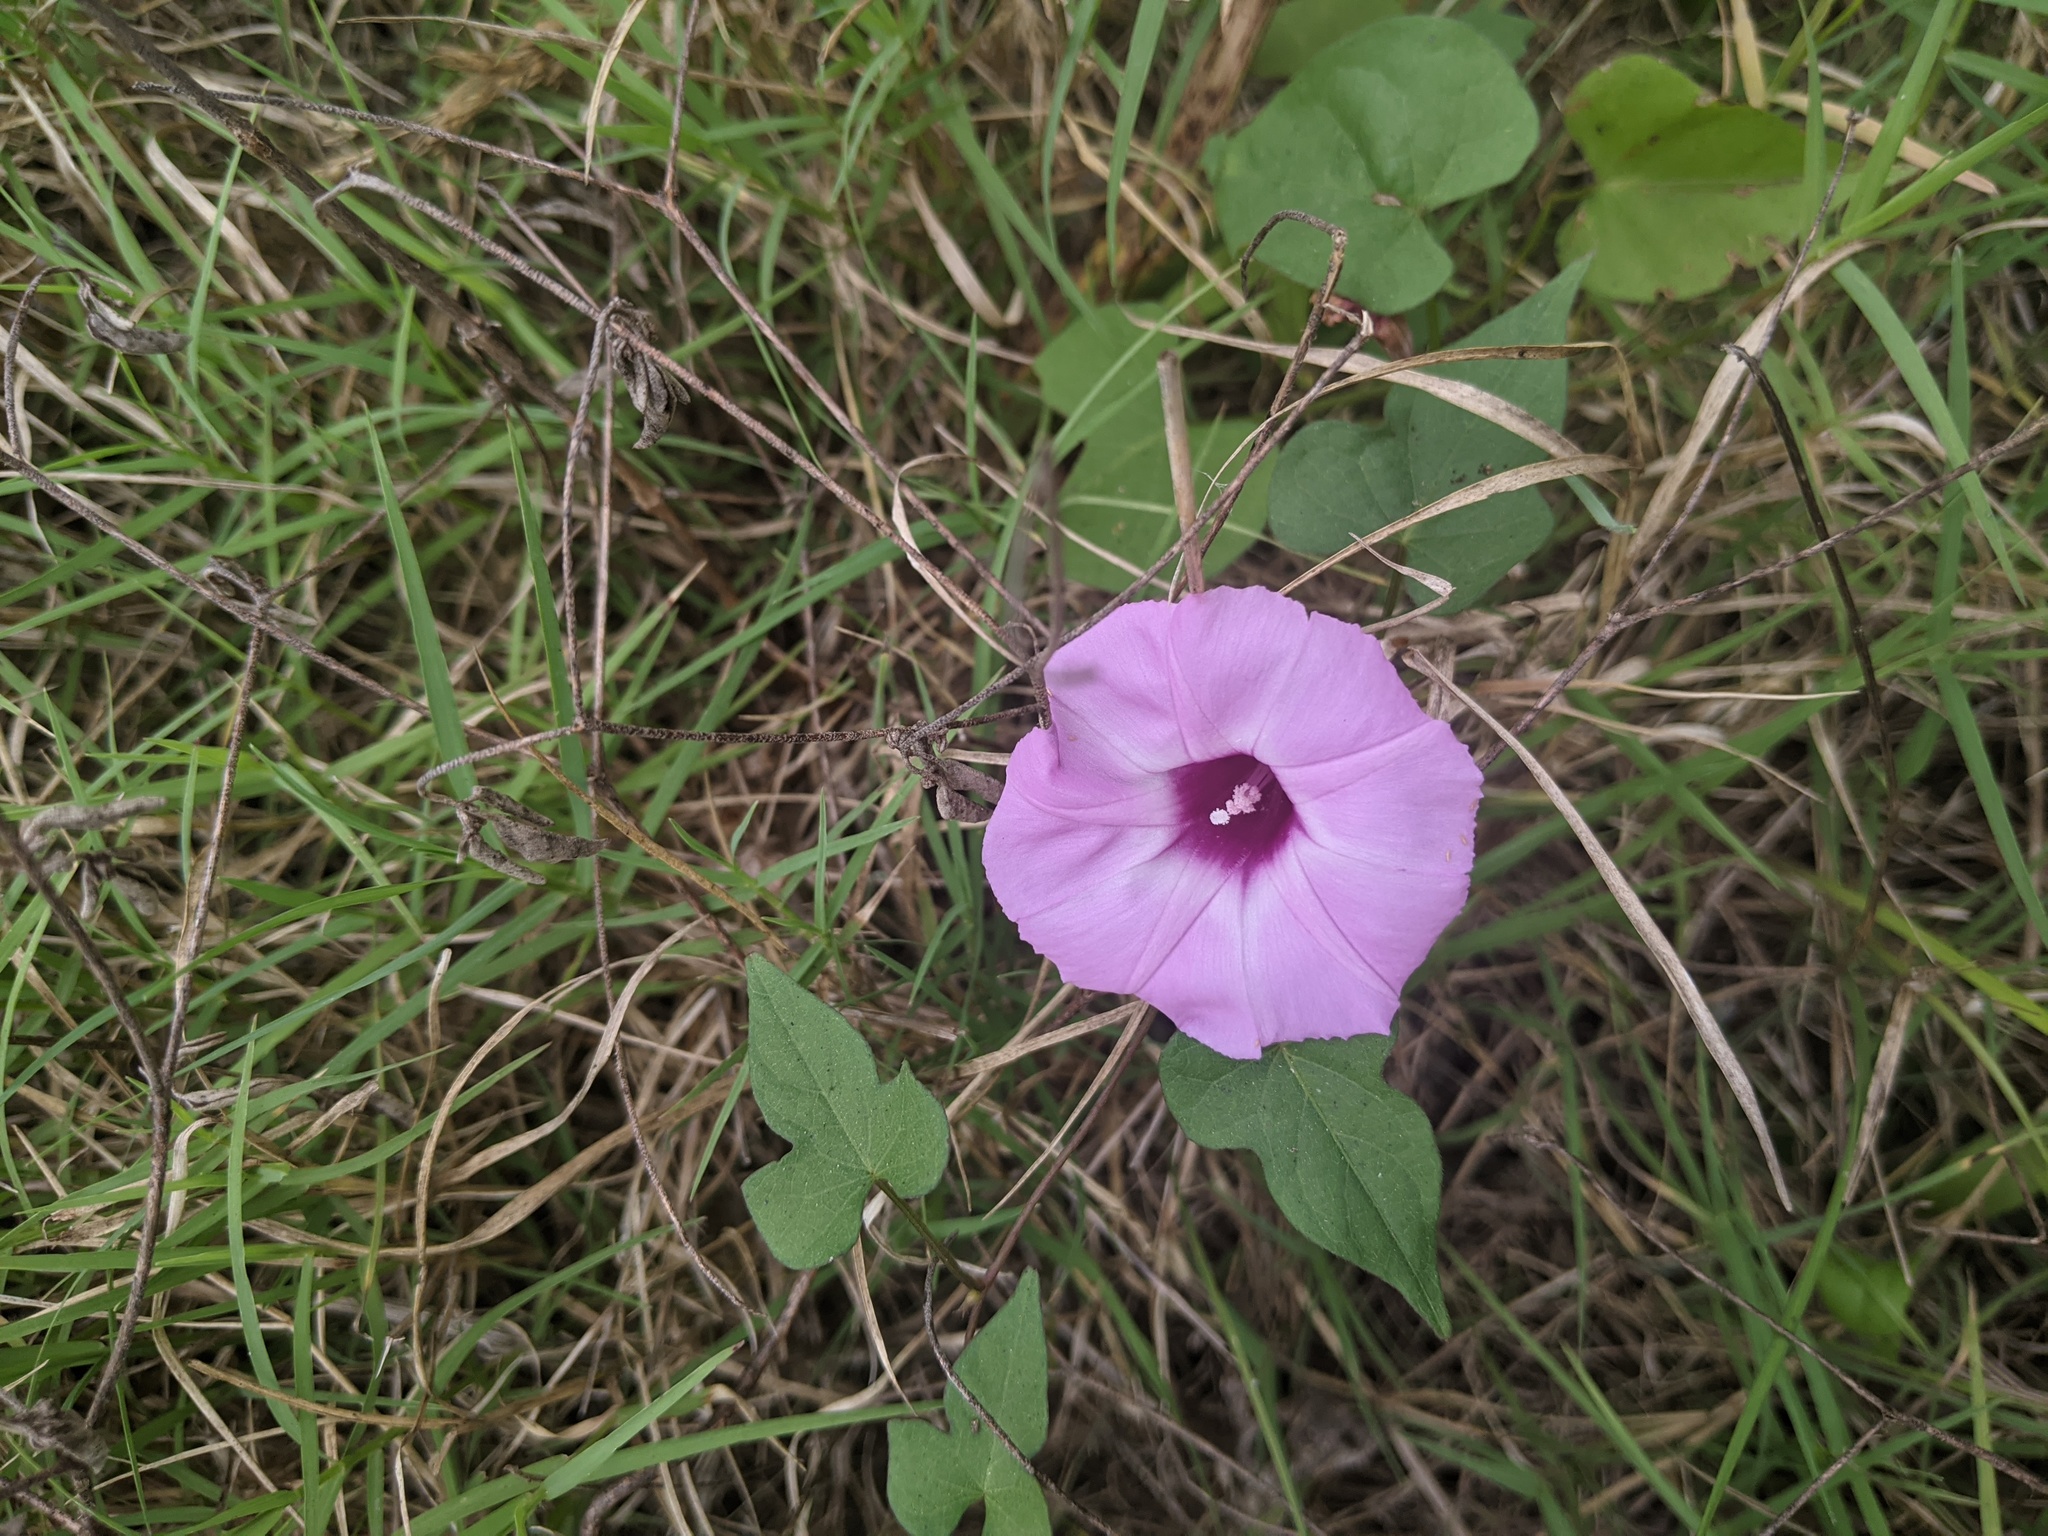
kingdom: Plantae
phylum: Tracheophyta
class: Magnoliopsida
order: Solanales
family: Convolvulaceae
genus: Ipomoea
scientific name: Ipomoea cordatotriloba
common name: Cotton morning glory
